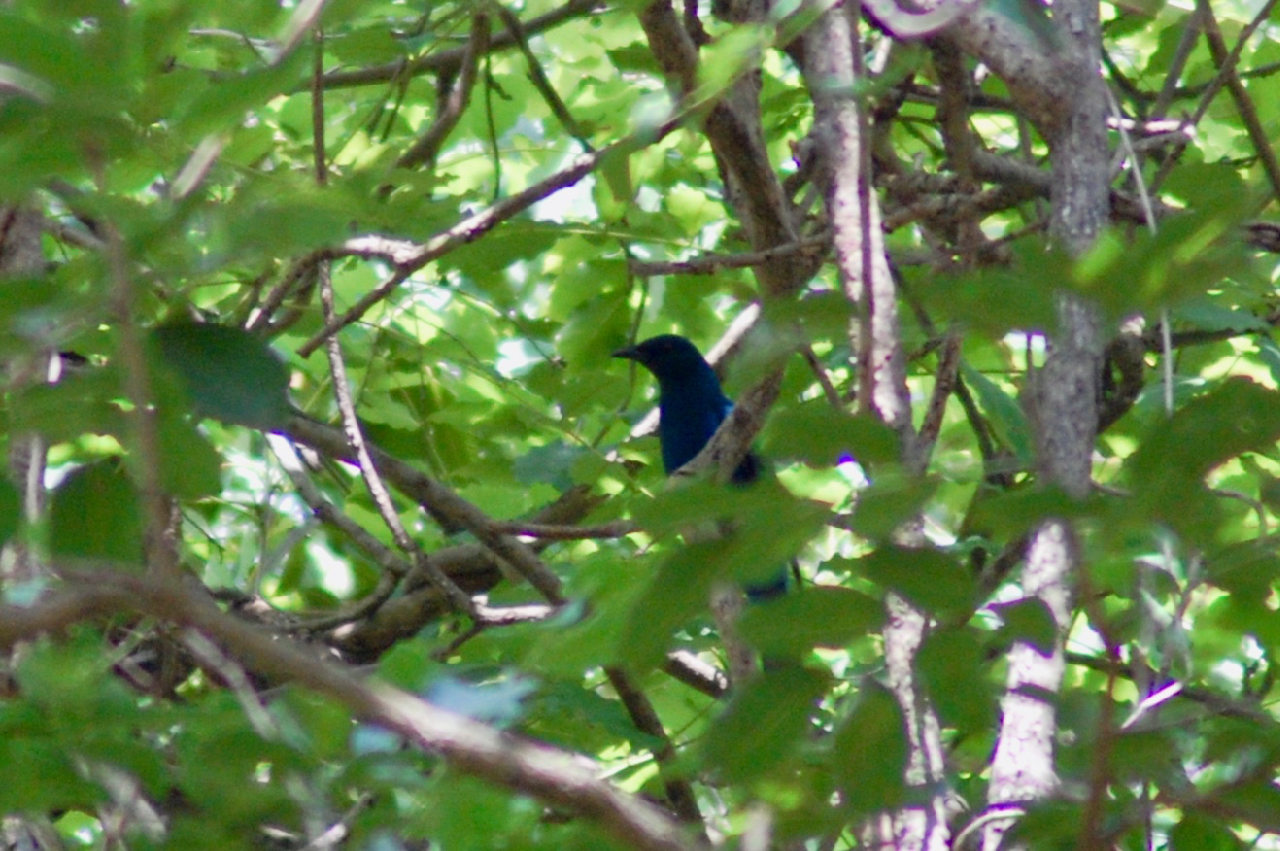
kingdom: Animalia
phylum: Chordata
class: Aves
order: Passeriformes
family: Muscicapidae
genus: Myophonus
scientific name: Myophonus horsfieldii
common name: Malabar whistling-thrush
